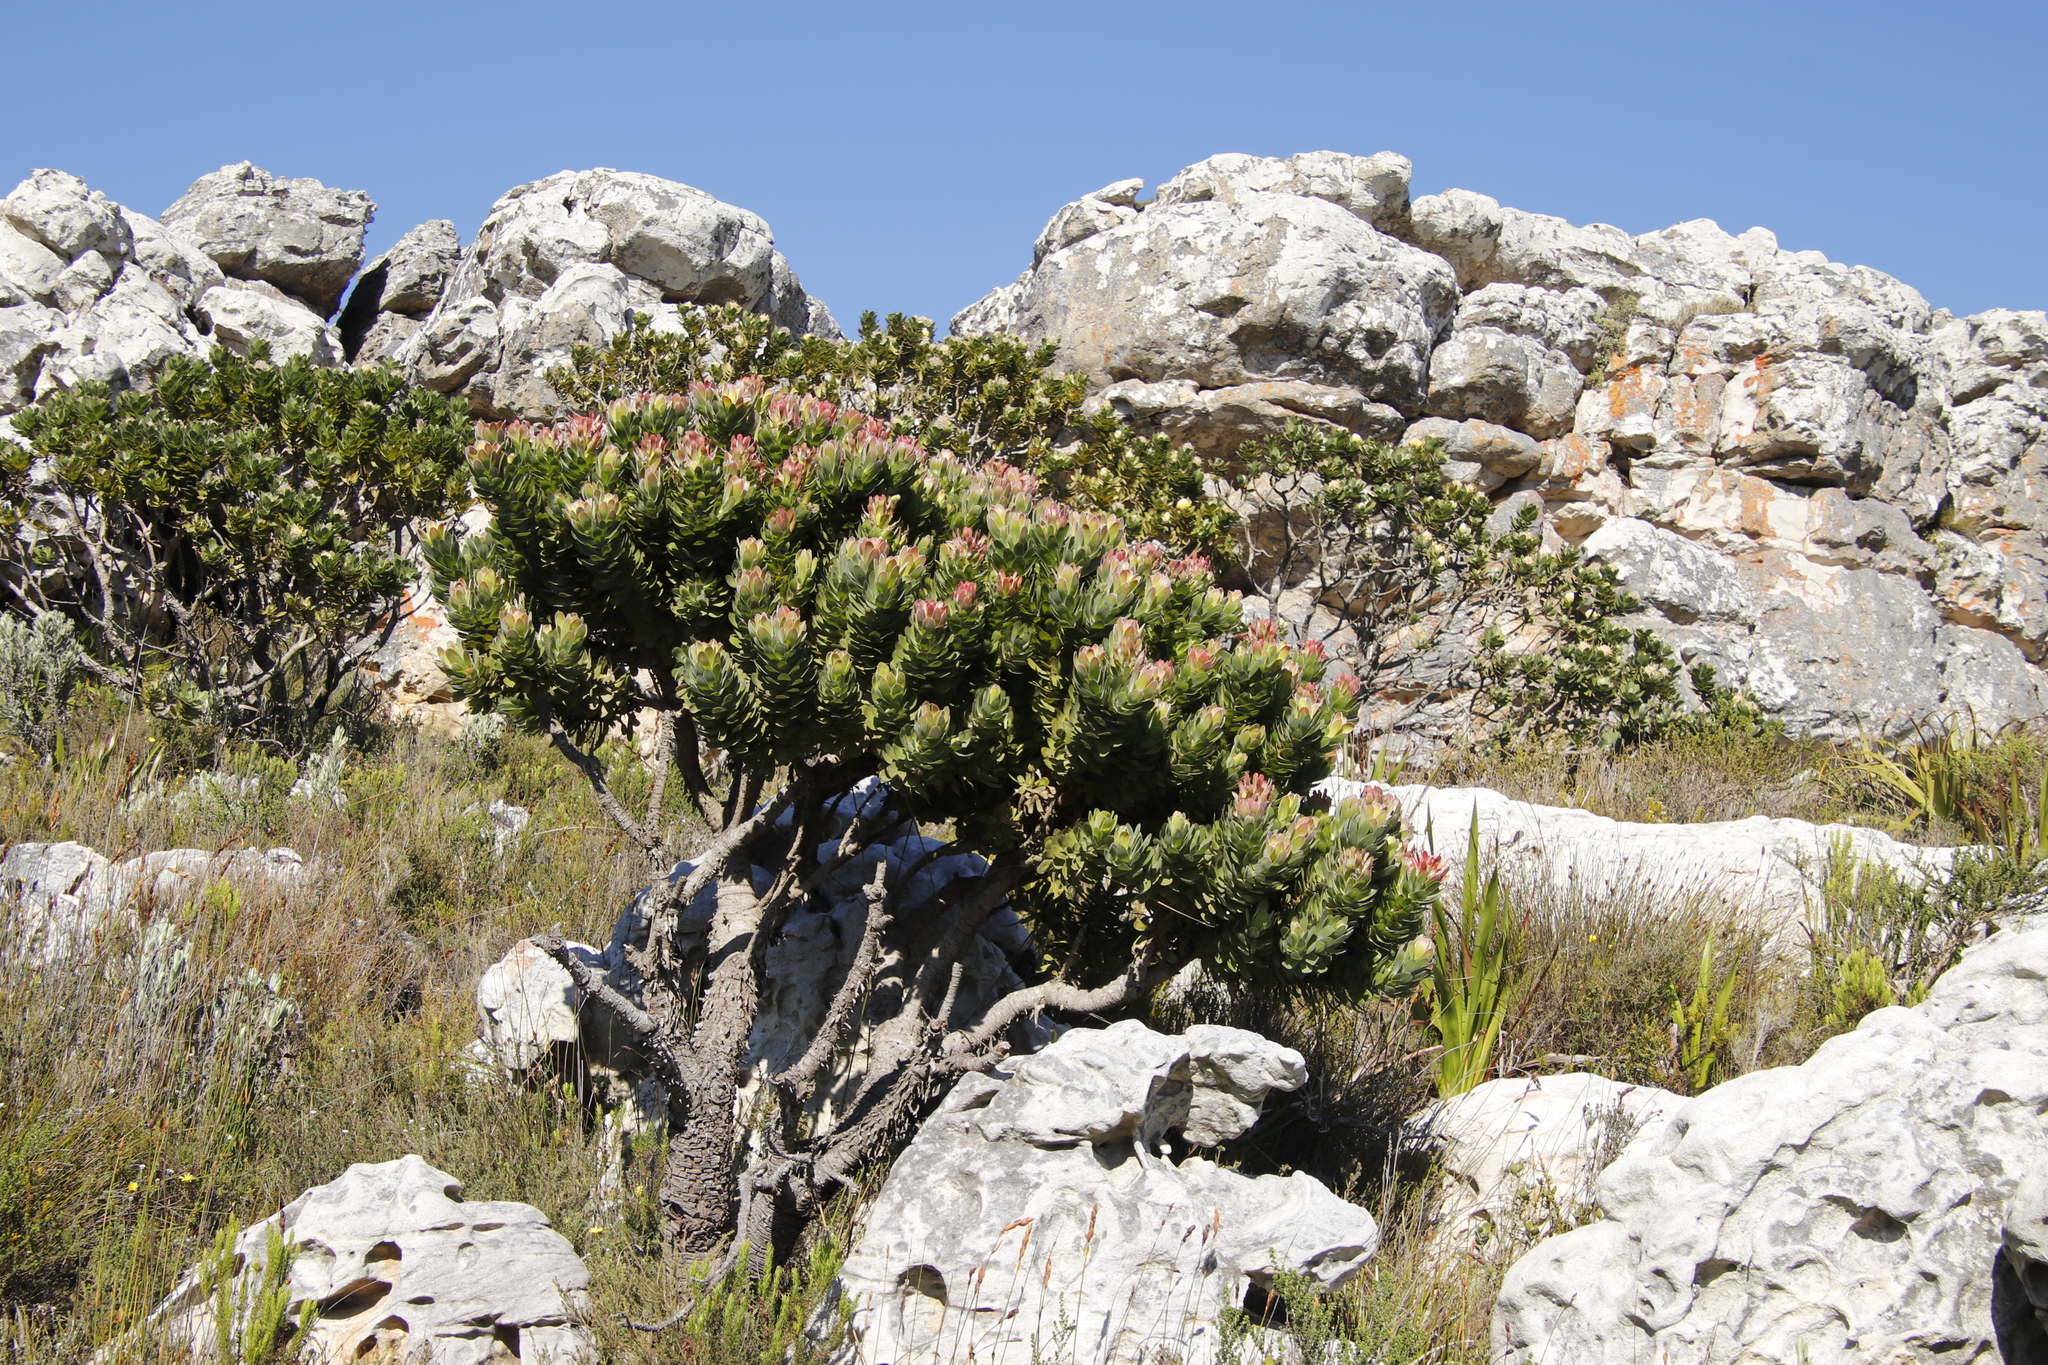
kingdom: Plantae
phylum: Tracheophyta
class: Magnoliopsida
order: Proteales
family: Proteaceae
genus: Mimetes
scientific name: Mimetes fimbriifolius
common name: Fringed bottlebrush
